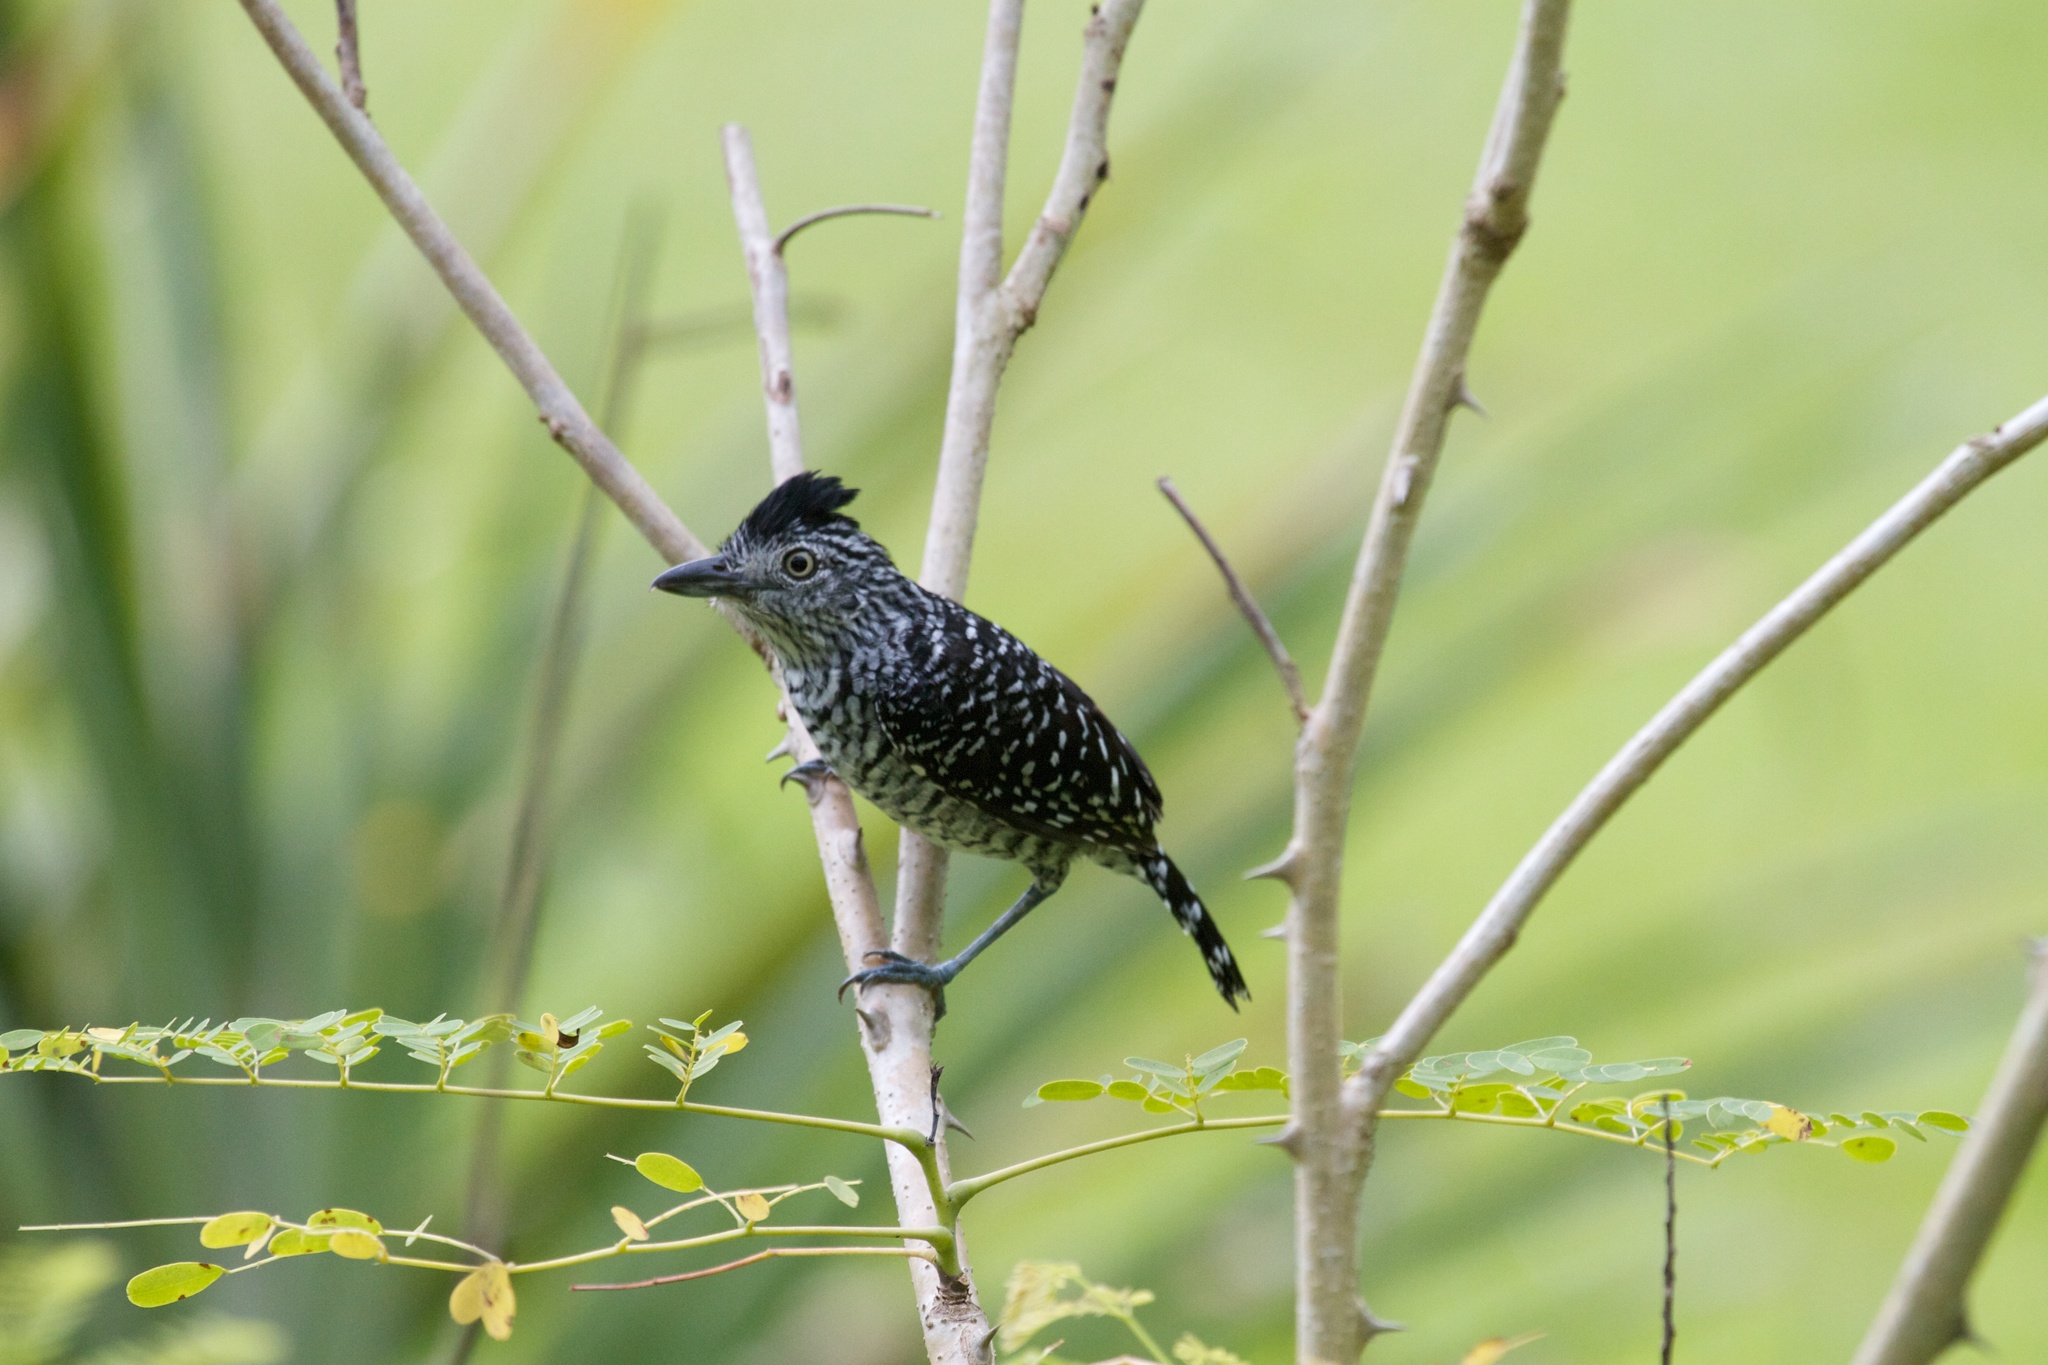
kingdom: Animalia
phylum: Chordata
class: Aves
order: Passeriformes
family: Thamnophilidae
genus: Thamnophilus
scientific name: Thamnophilus doliatus
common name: Barred antshrike
